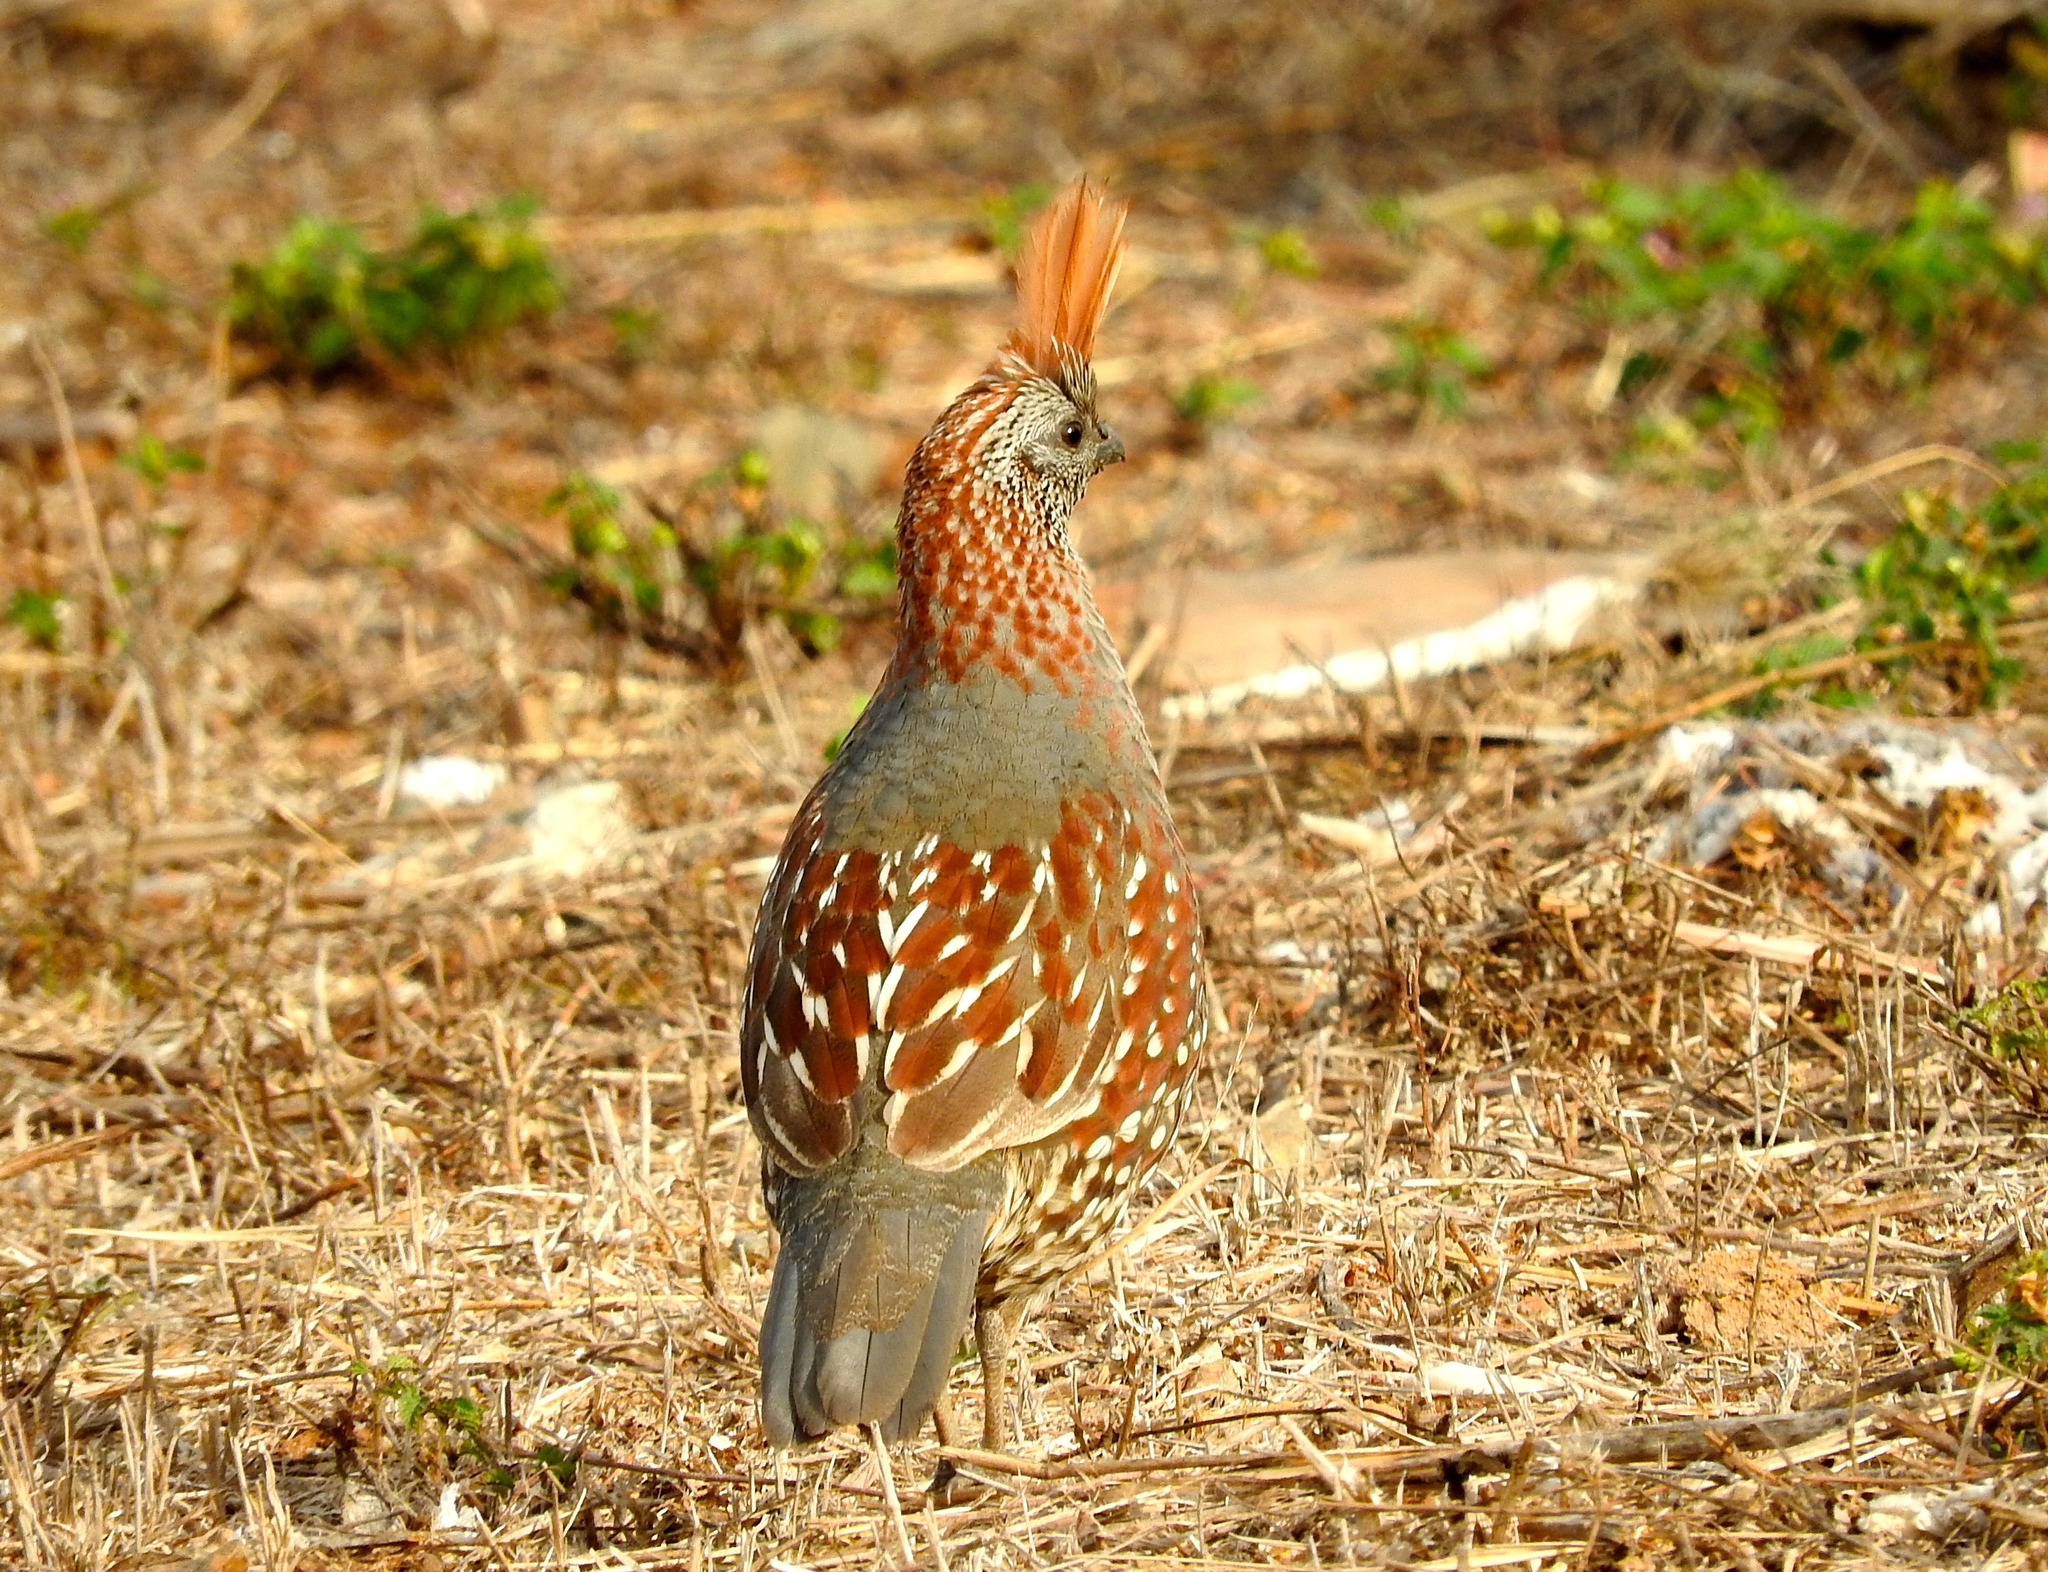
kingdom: Animalia
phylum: Chordata
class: Aves
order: Galliformes
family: Odontophoridae
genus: Callipepla
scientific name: Callipepla douglasii
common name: Elegant quail
